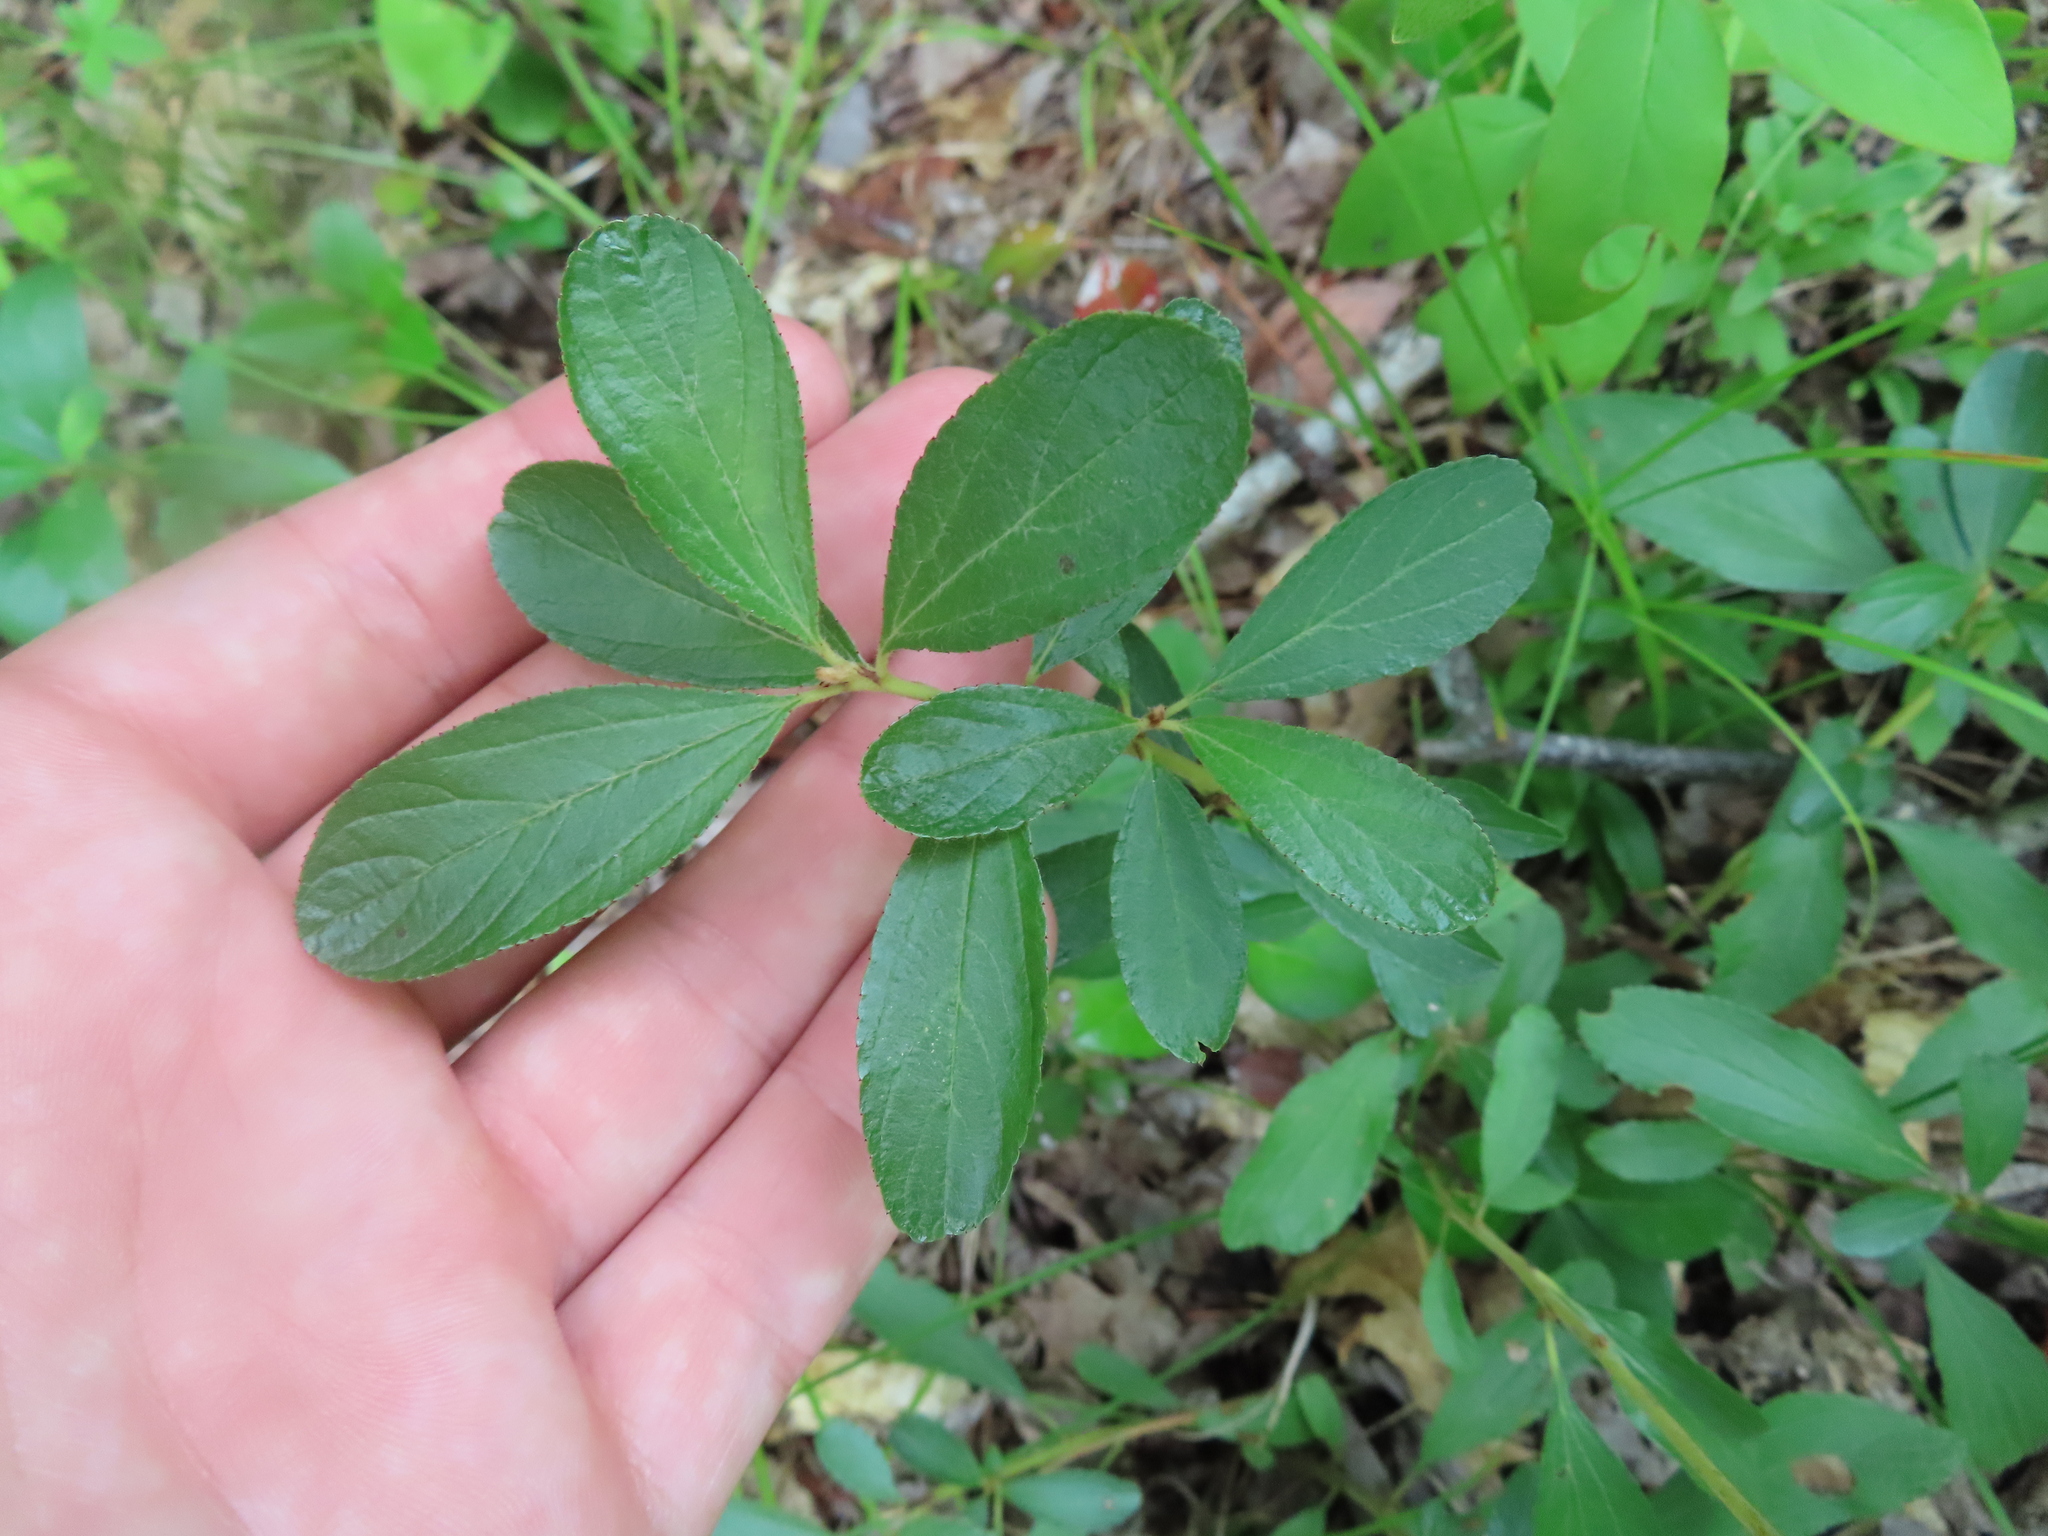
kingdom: Plantae
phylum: Tracheophyta
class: Magnoliopsida
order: Rosales
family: Rhamnaceae
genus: Ceanothus
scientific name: Ceanothus herbaceus
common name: Inland ceanothus
